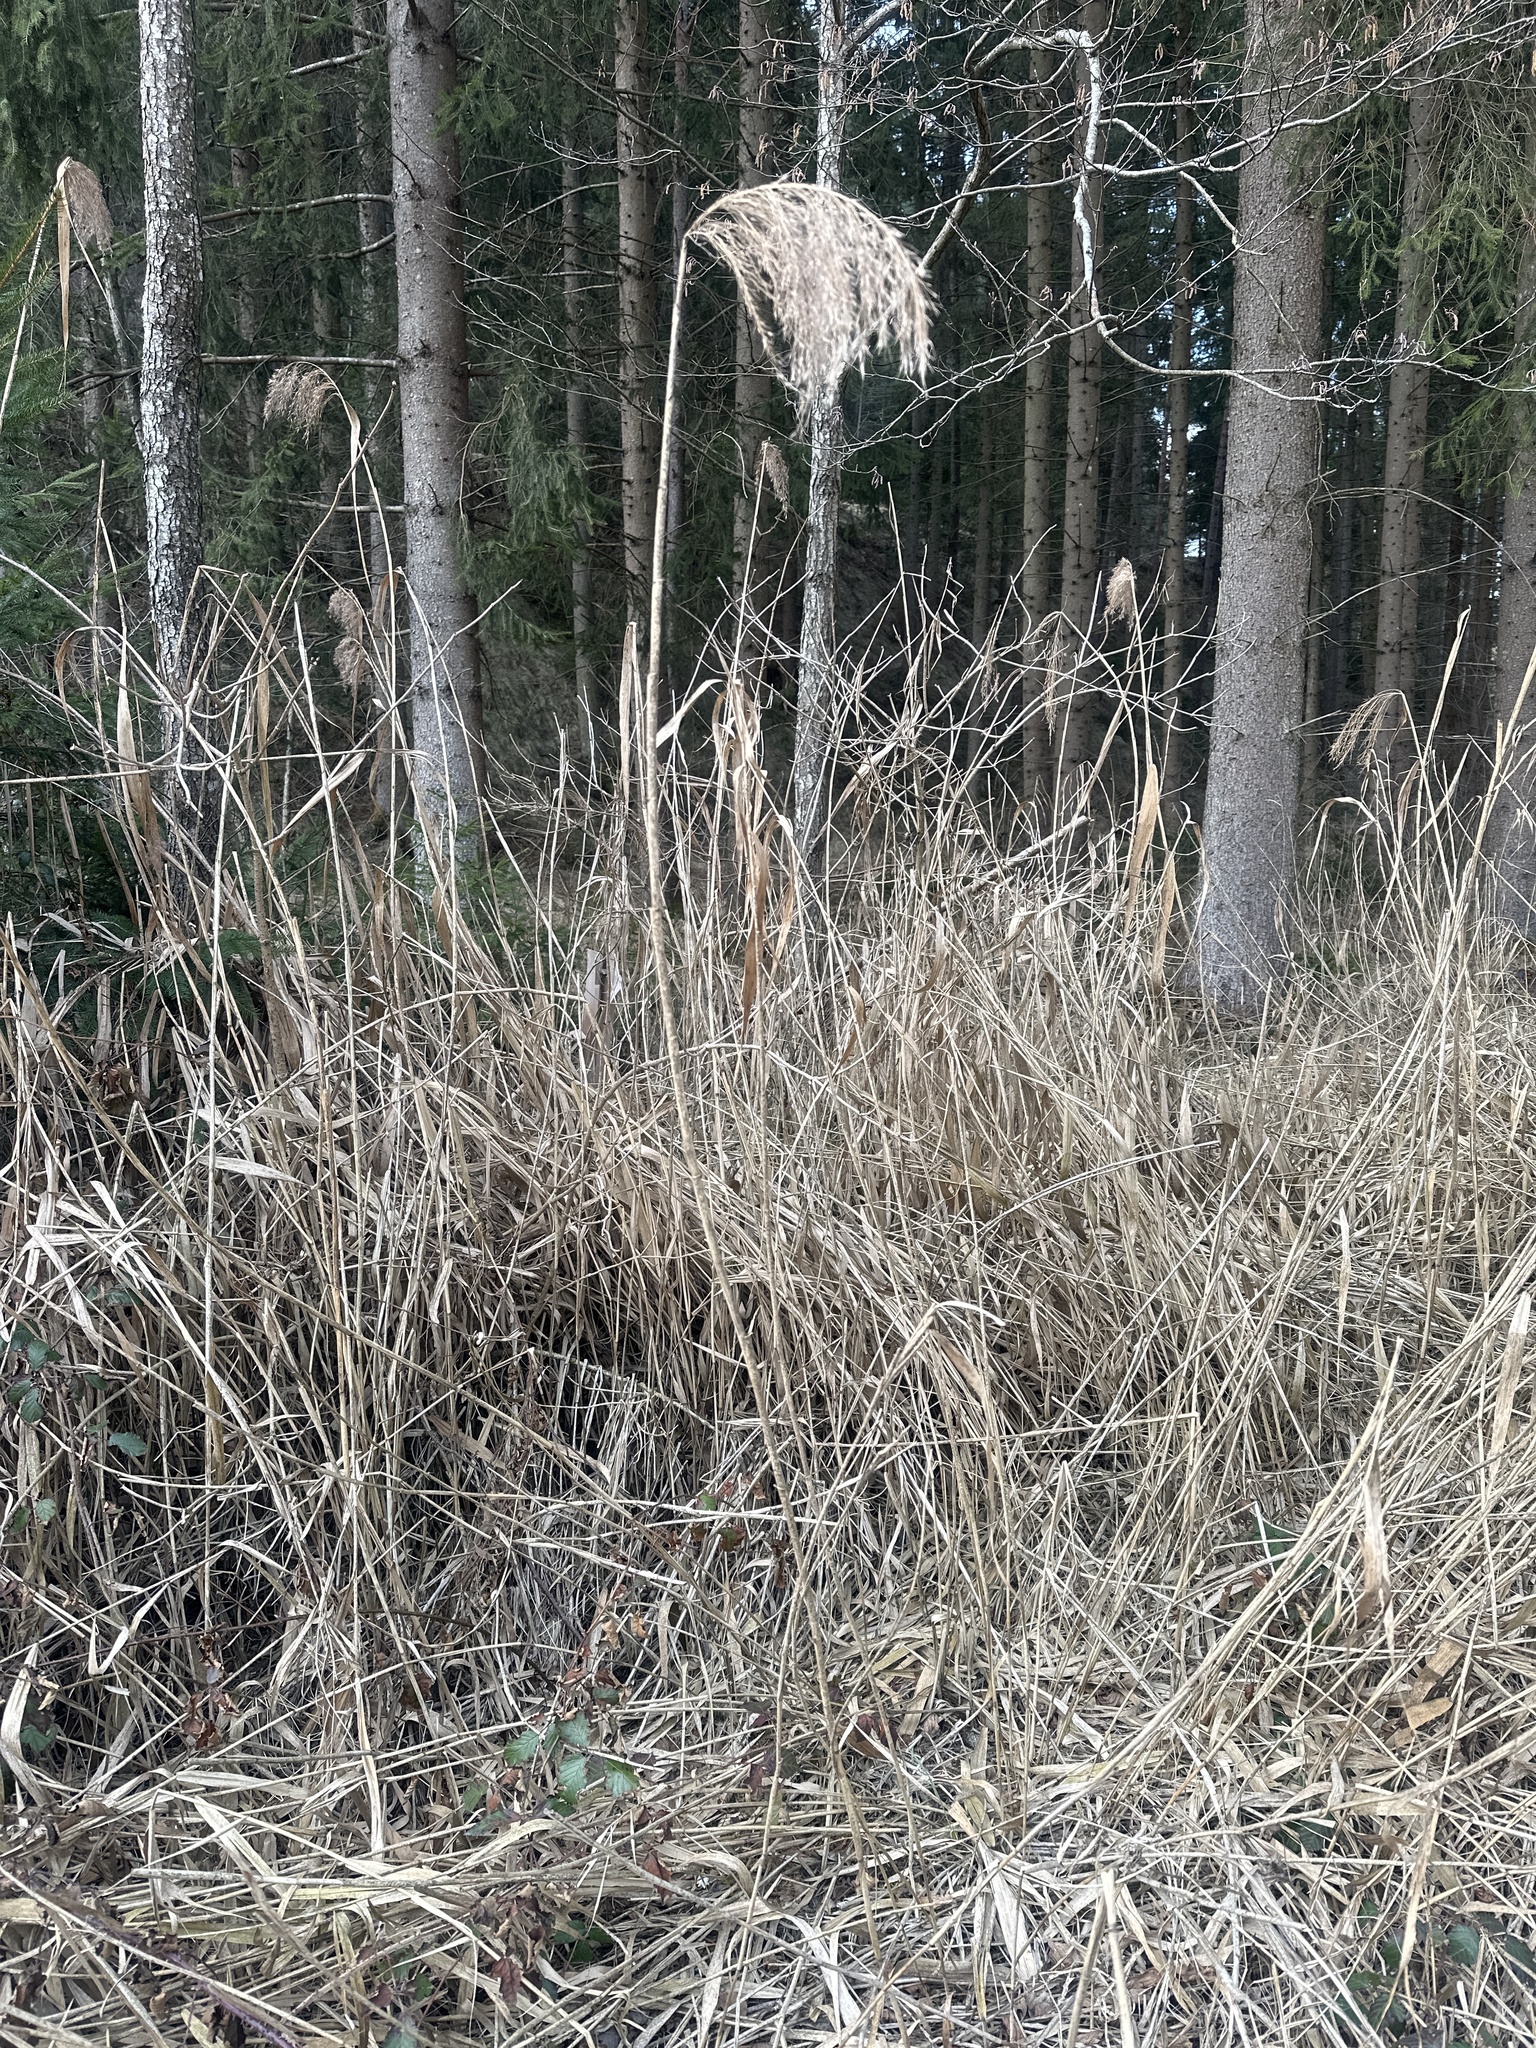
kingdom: Plantae
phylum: Tracheophyta
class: Liliopsida
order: Poales
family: Poaceae
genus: Phragmites
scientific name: Phragmites australis
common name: Common reed
